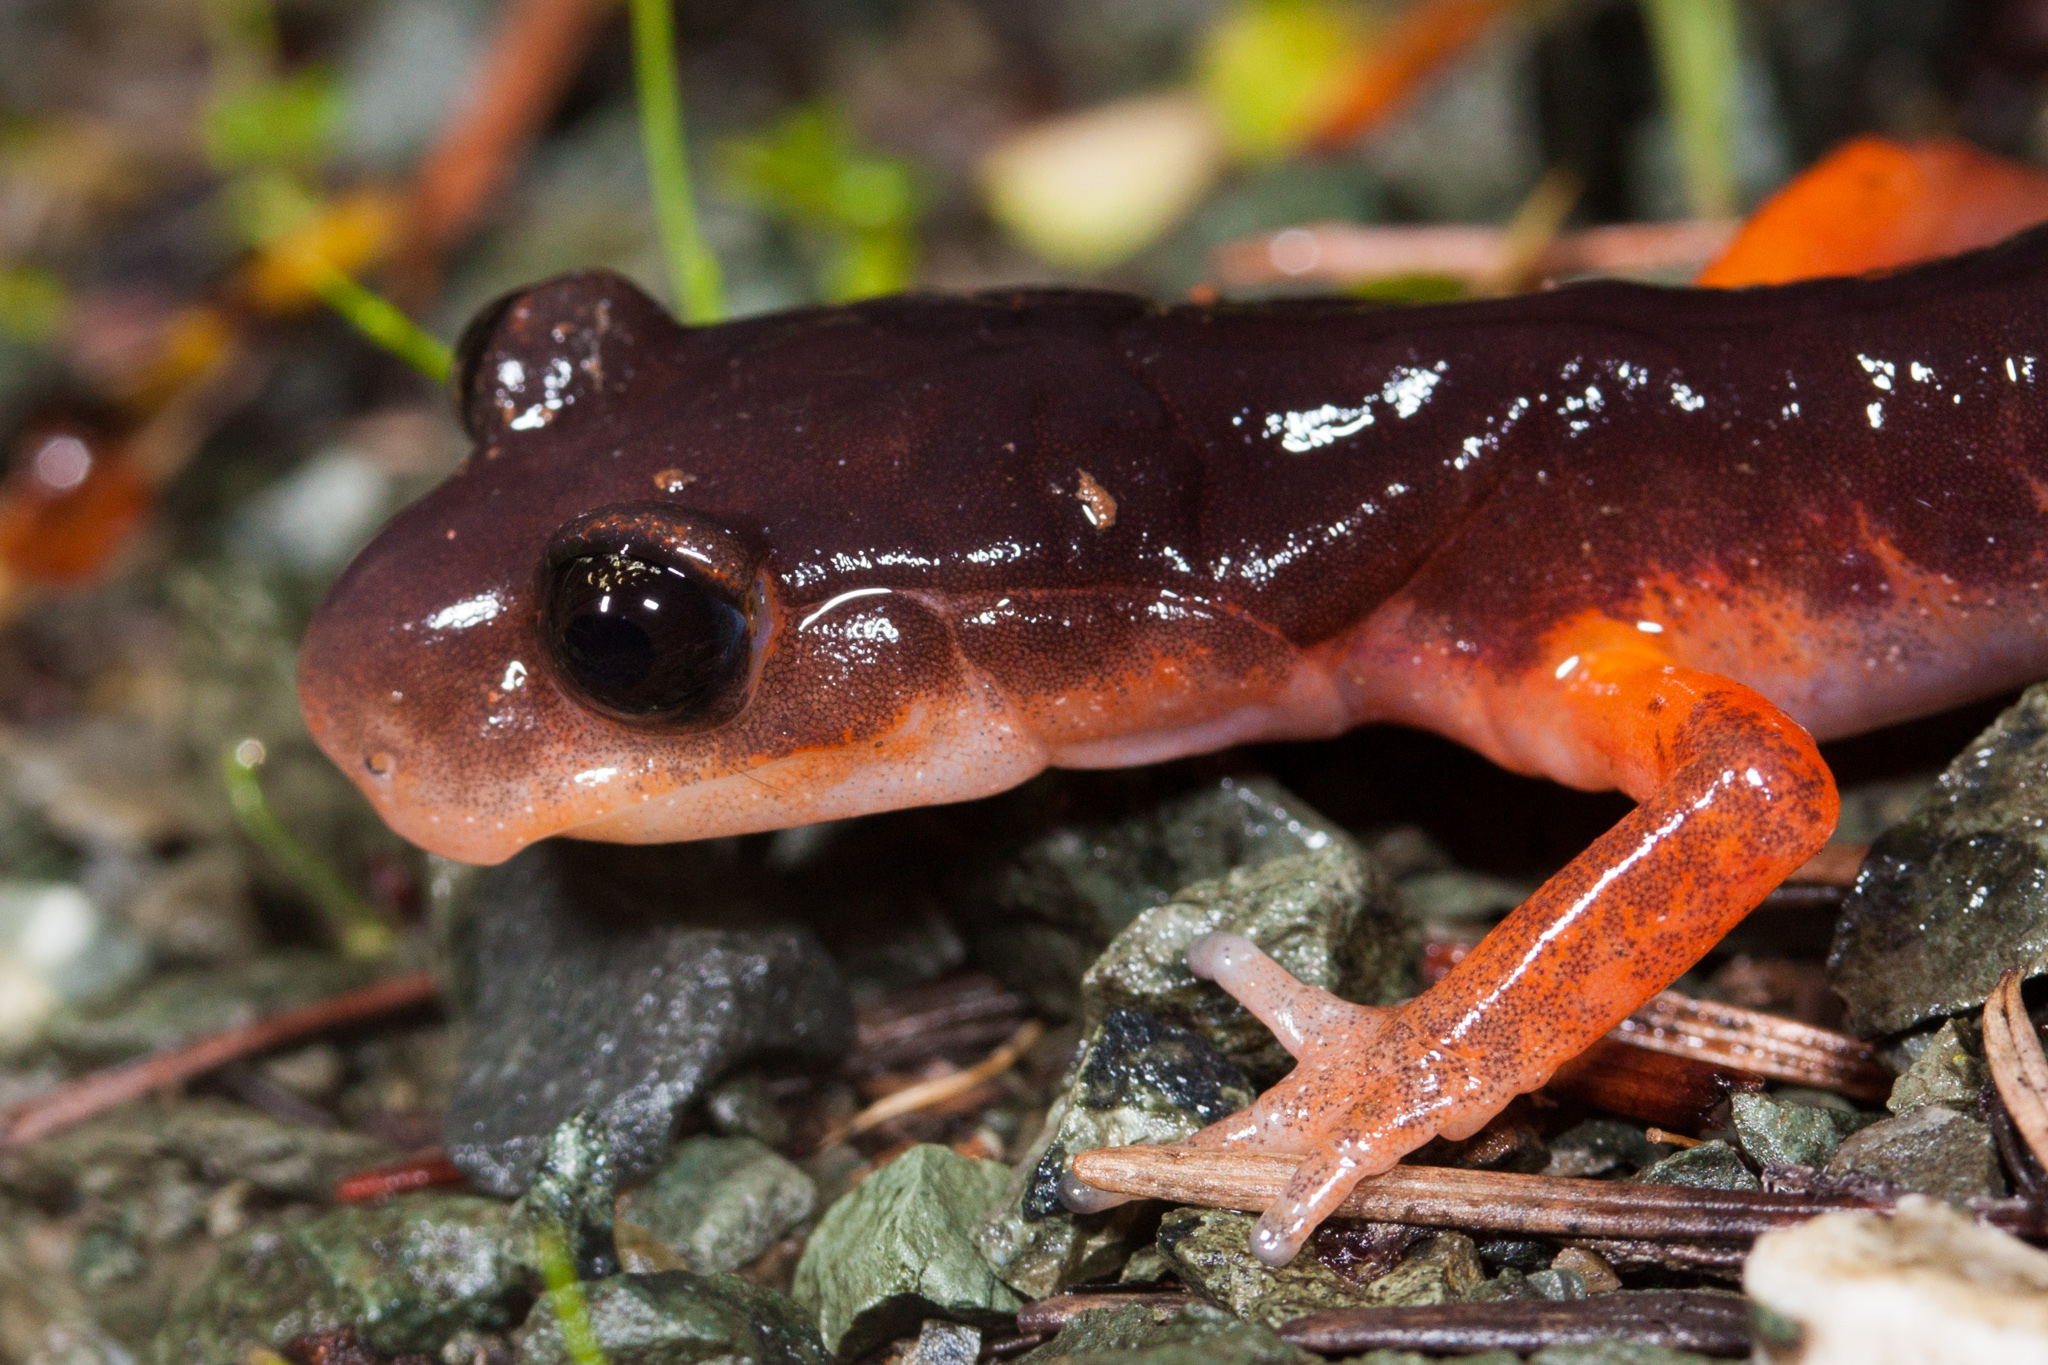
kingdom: Animalia
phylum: Chordata
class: Amphibia
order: Caudata
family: Plethodontidae
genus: Ensatina
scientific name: Ensatina eschscholtzii
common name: Ensatina
